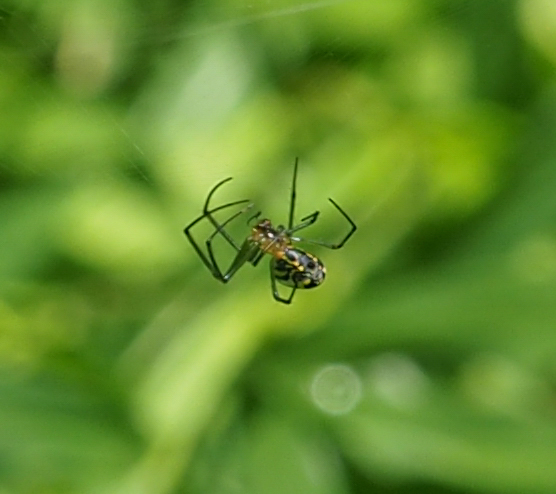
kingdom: Animalia
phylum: Arthropoda
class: Arachnida
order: Araneae
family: Tetragnathidae
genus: Leucauge
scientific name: Leucauge venusta
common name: Longjawed orb weavers
